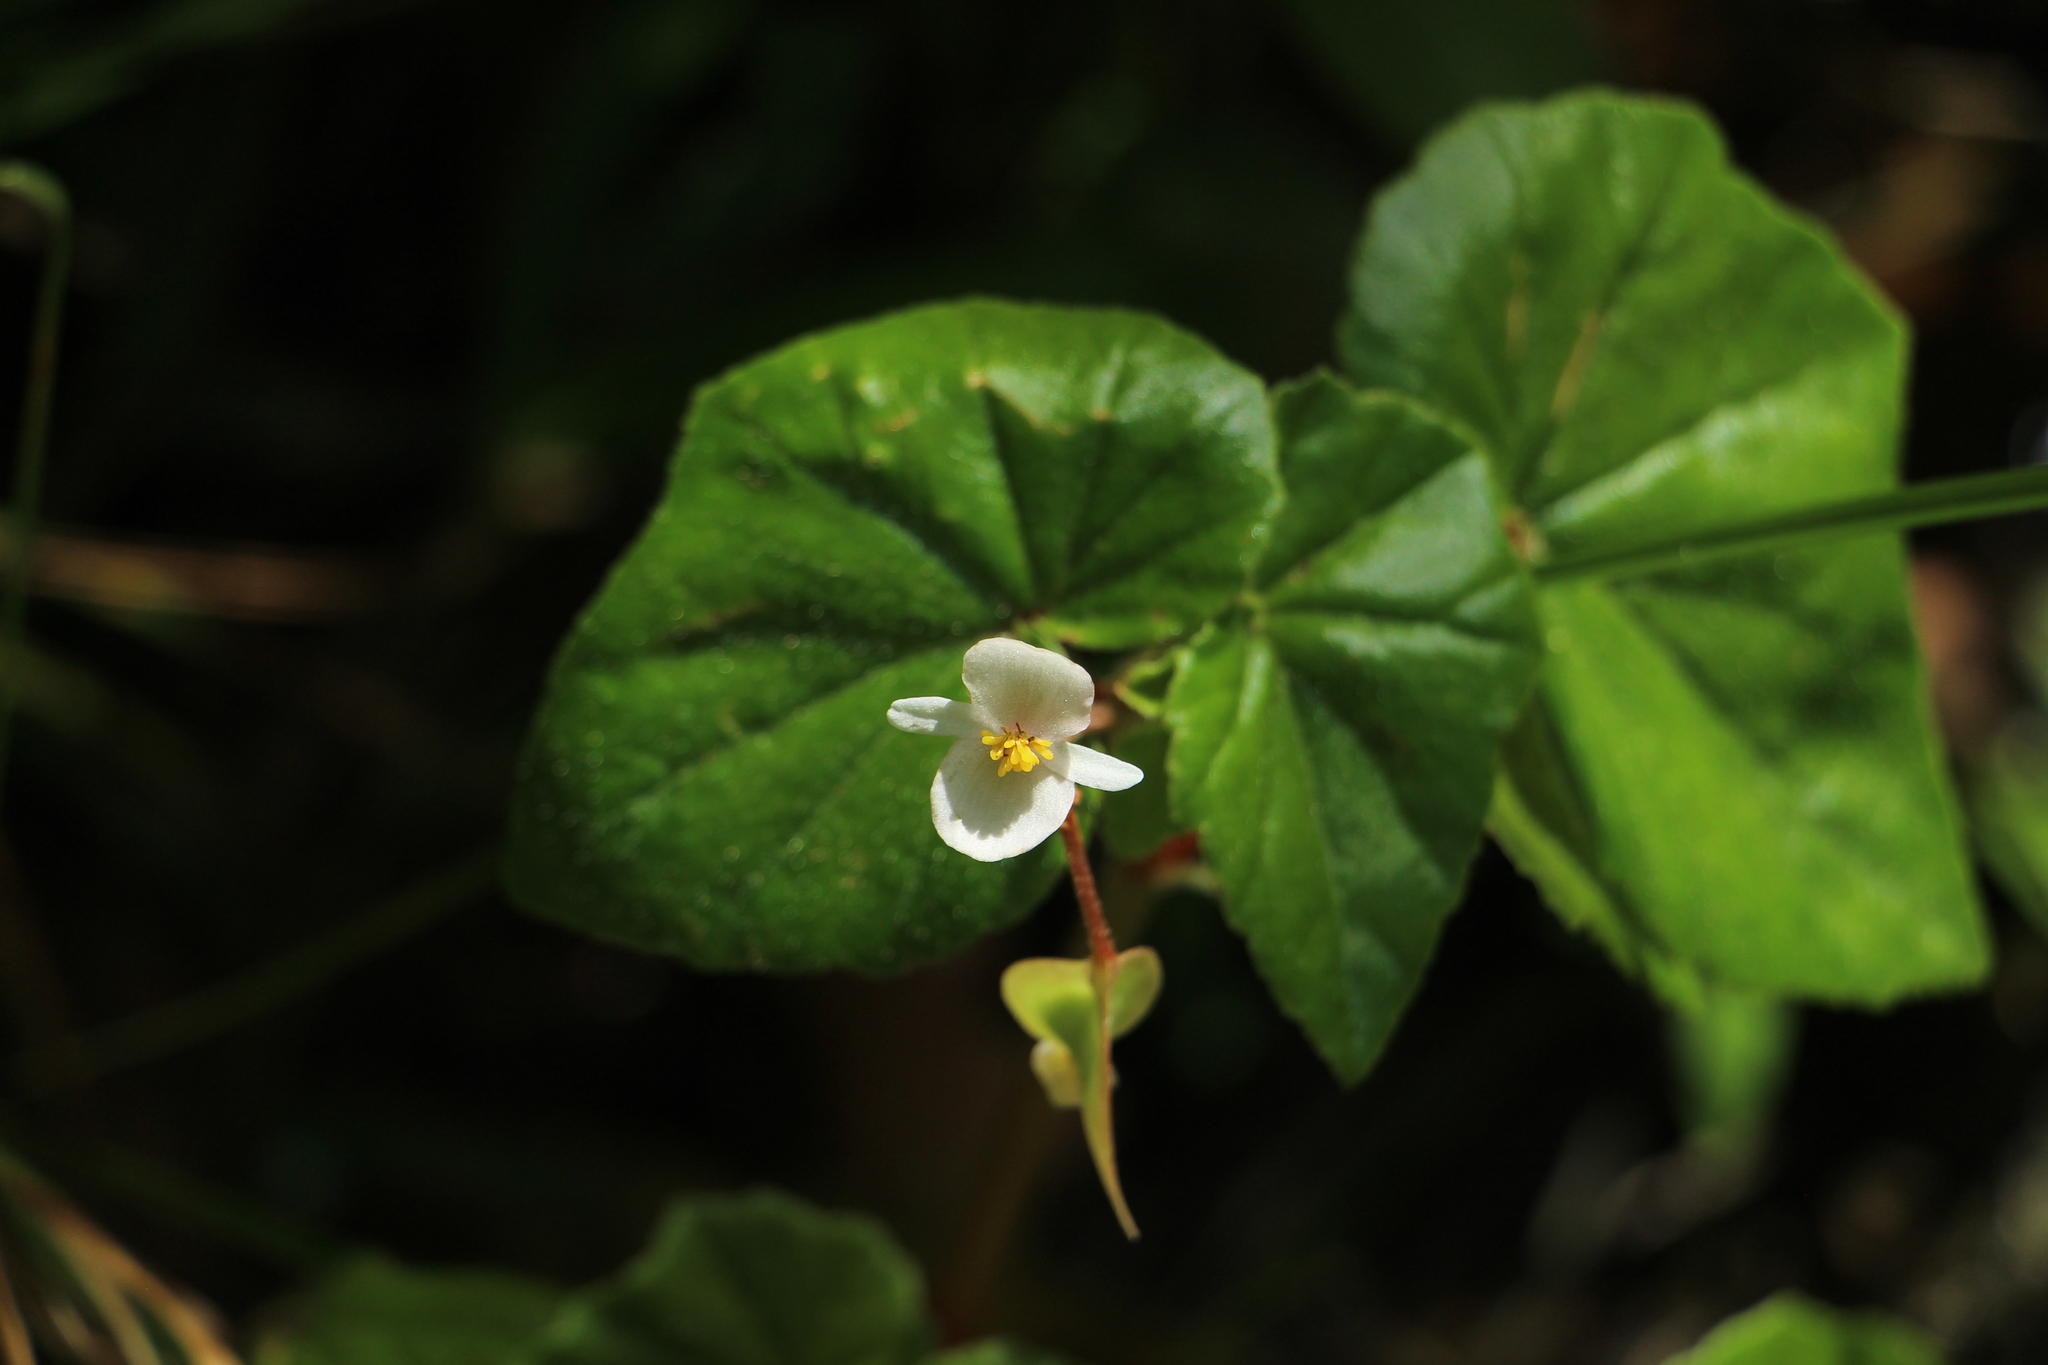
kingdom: Plantae
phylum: Tracheophyta
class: Magnoliopsida
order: Cucurbitales
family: Begoniaceae
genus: Begonia
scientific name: Begonia fischeri
